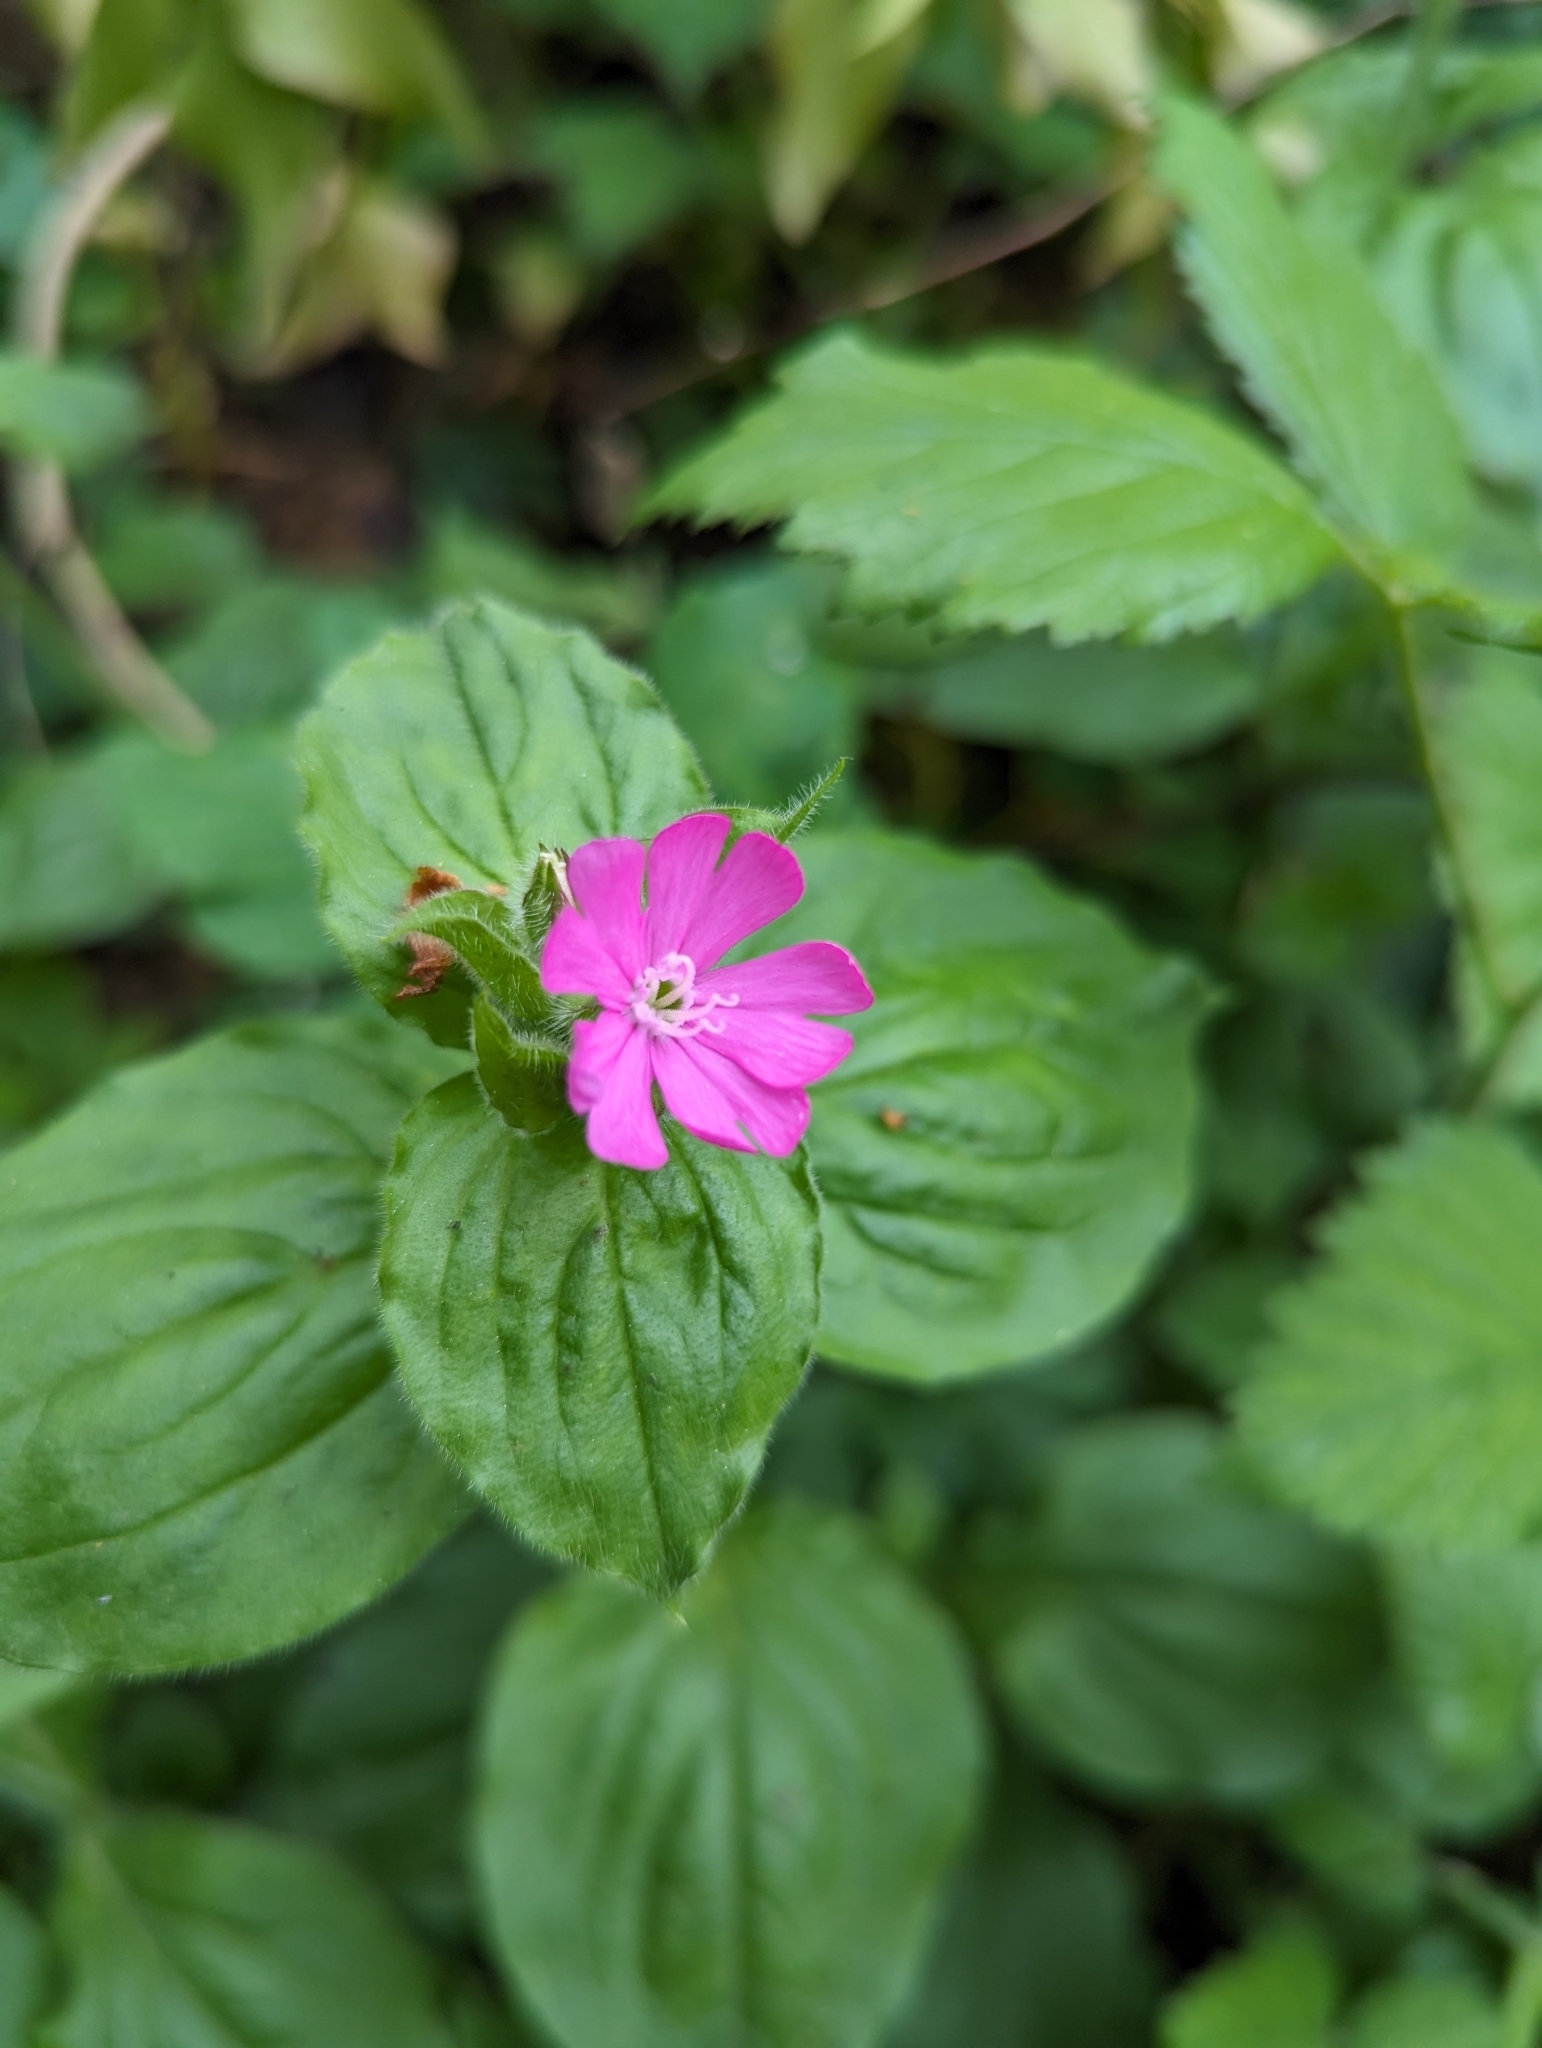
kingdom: Plantae
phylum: Tracheophyta
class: Magnoliopsida
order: Caryophyllales
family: Caryophyllaceae
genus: Silene
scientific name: Silene dioica
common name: Red campion
